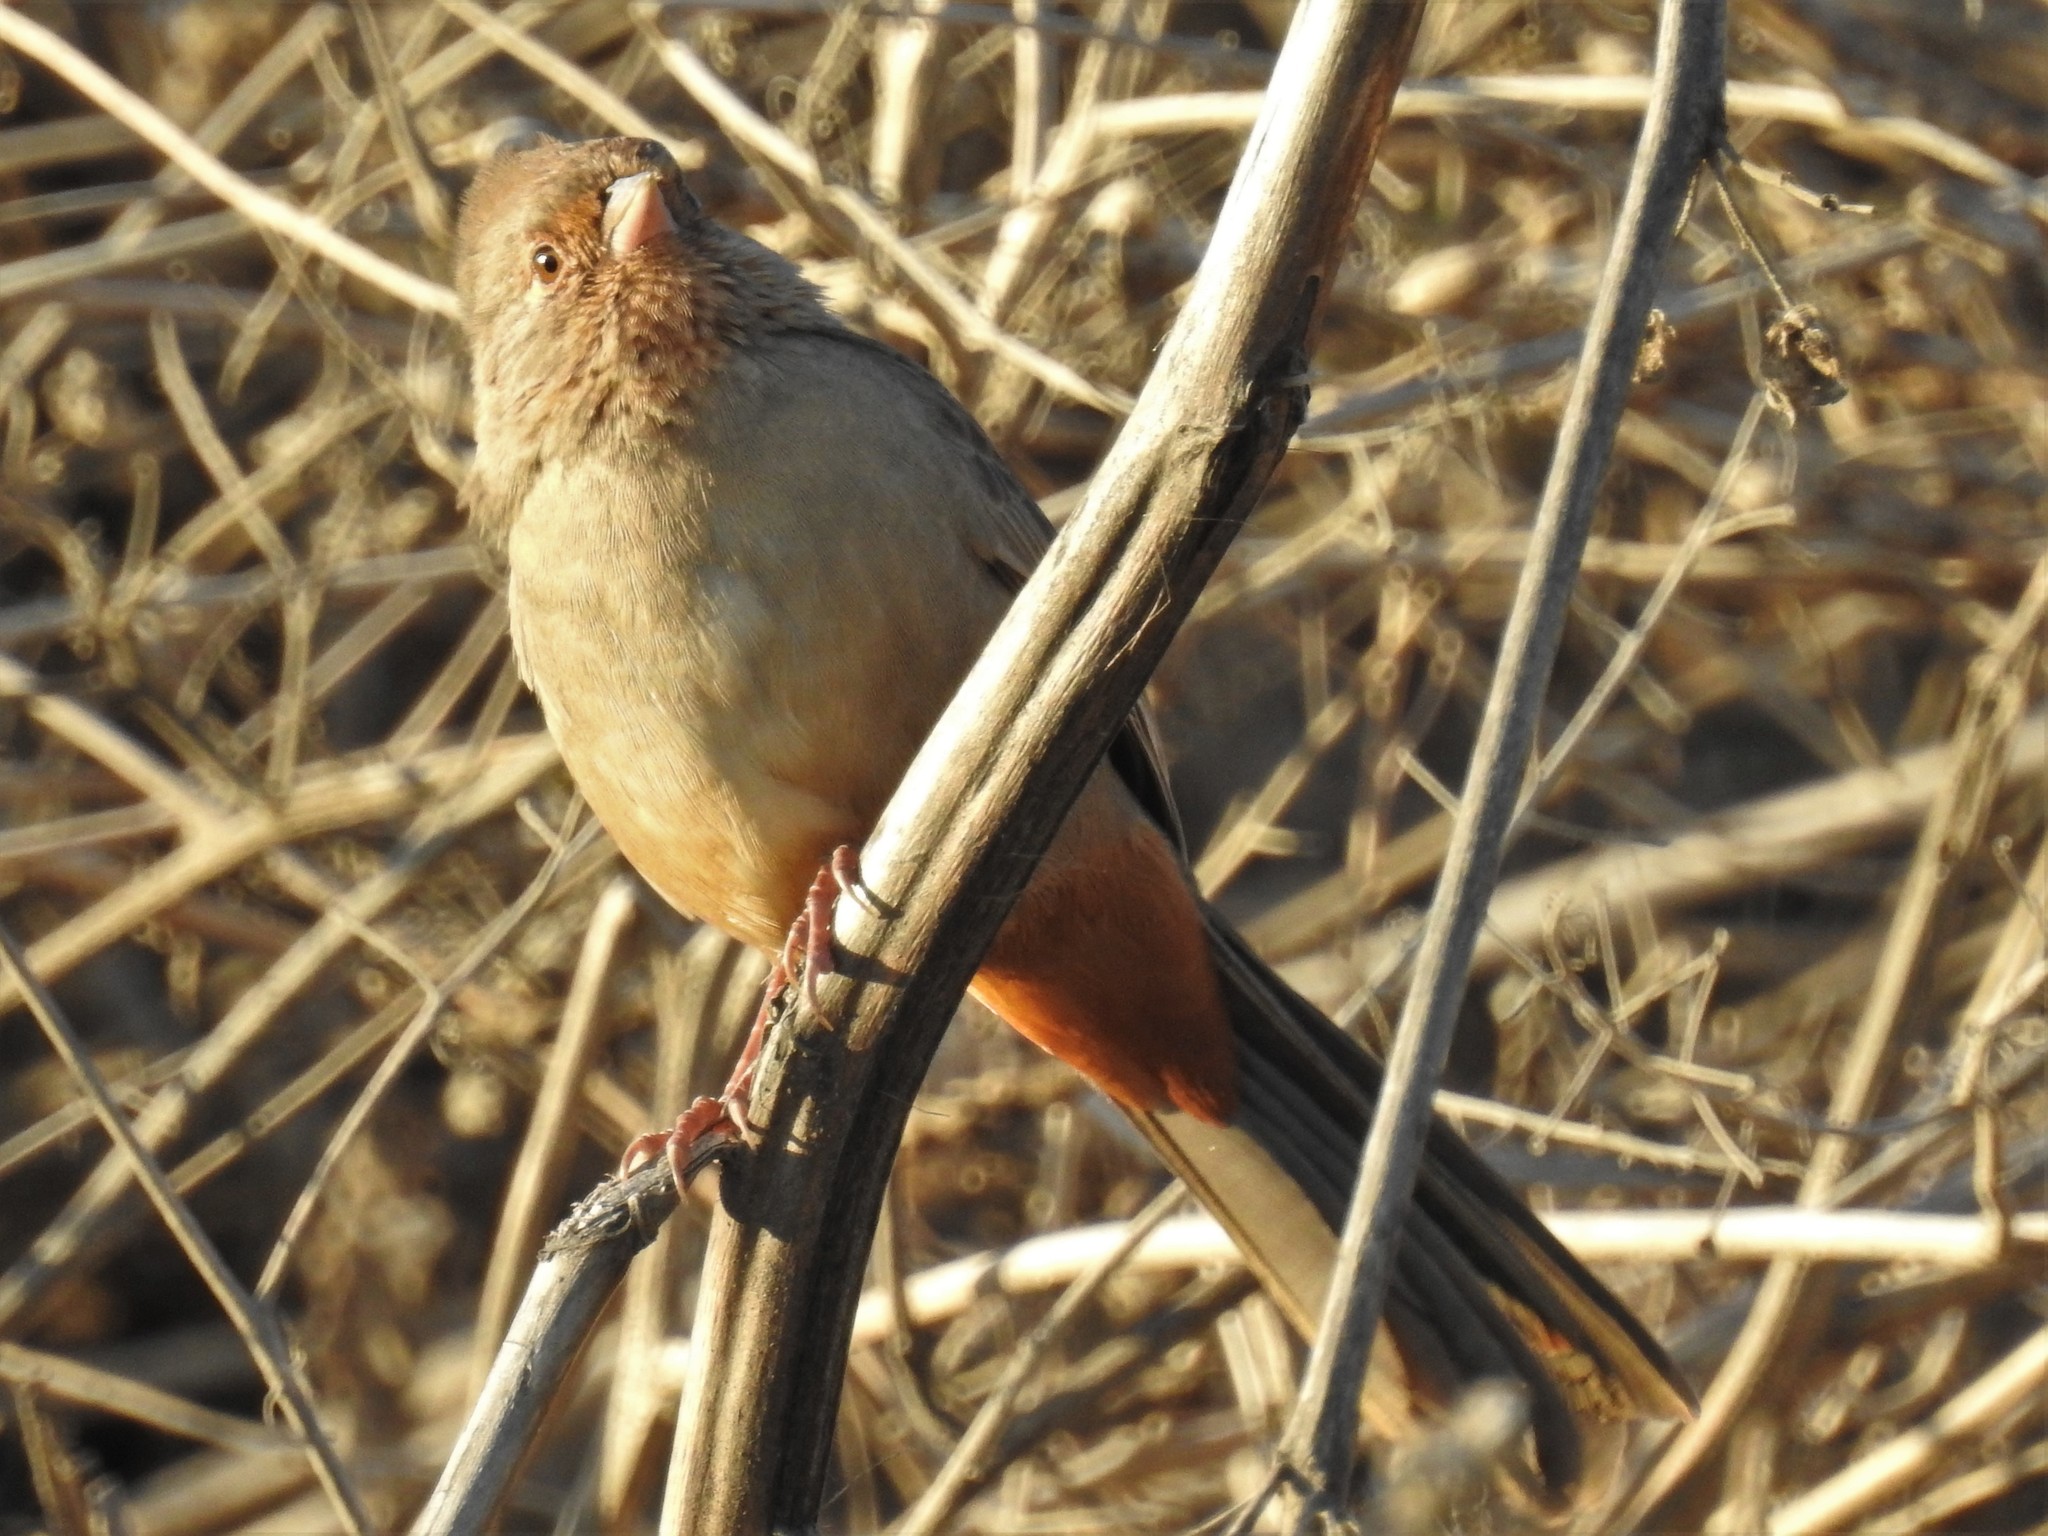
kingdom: Animalia
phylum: Chordata
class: Aves
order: Passeriformes
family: Passerellidae
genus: Melozone
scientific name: Melozone crissalis
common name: California towhee
